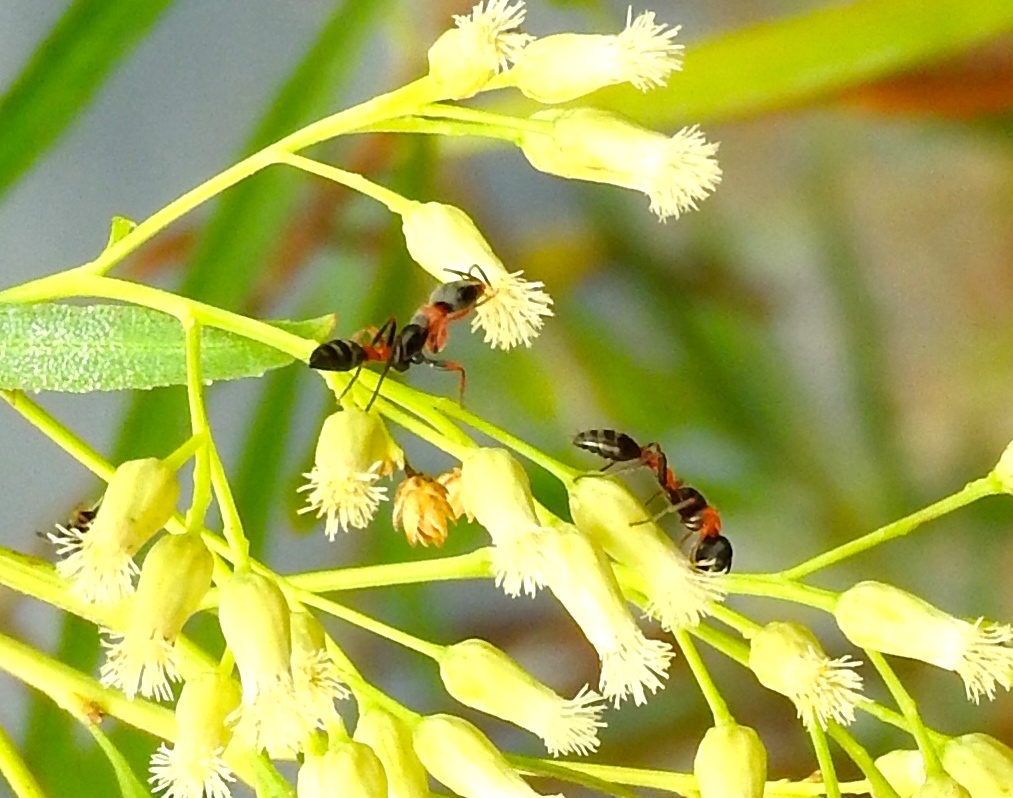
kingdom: Animalia
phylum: Arthropoda
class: Insecta
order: Hymenoptera
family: Formicidae
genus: Pseudomyrmex
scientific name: Pseudomyrmex gracilis
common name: Graceful twig ant
